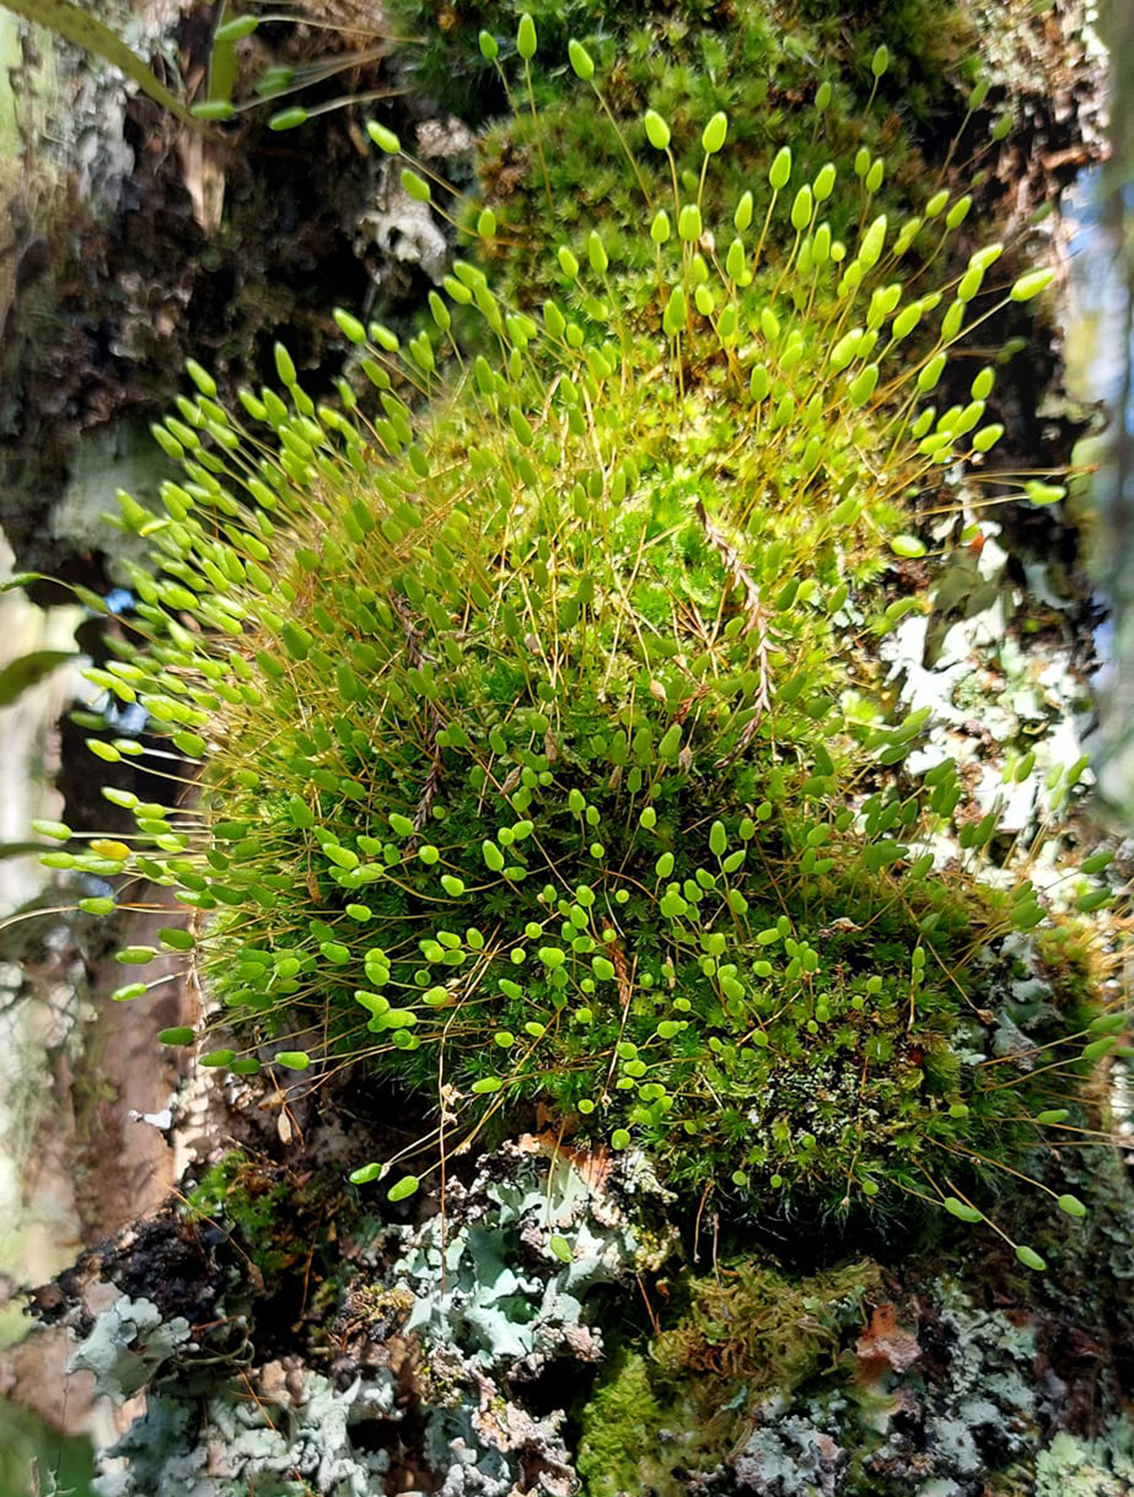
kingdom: Plantae
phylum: Bryophyta
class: Bryopsida
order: Bryales
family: Leptostomataceae
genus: Leptostomum
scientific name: Leptostomum macrocarpon
